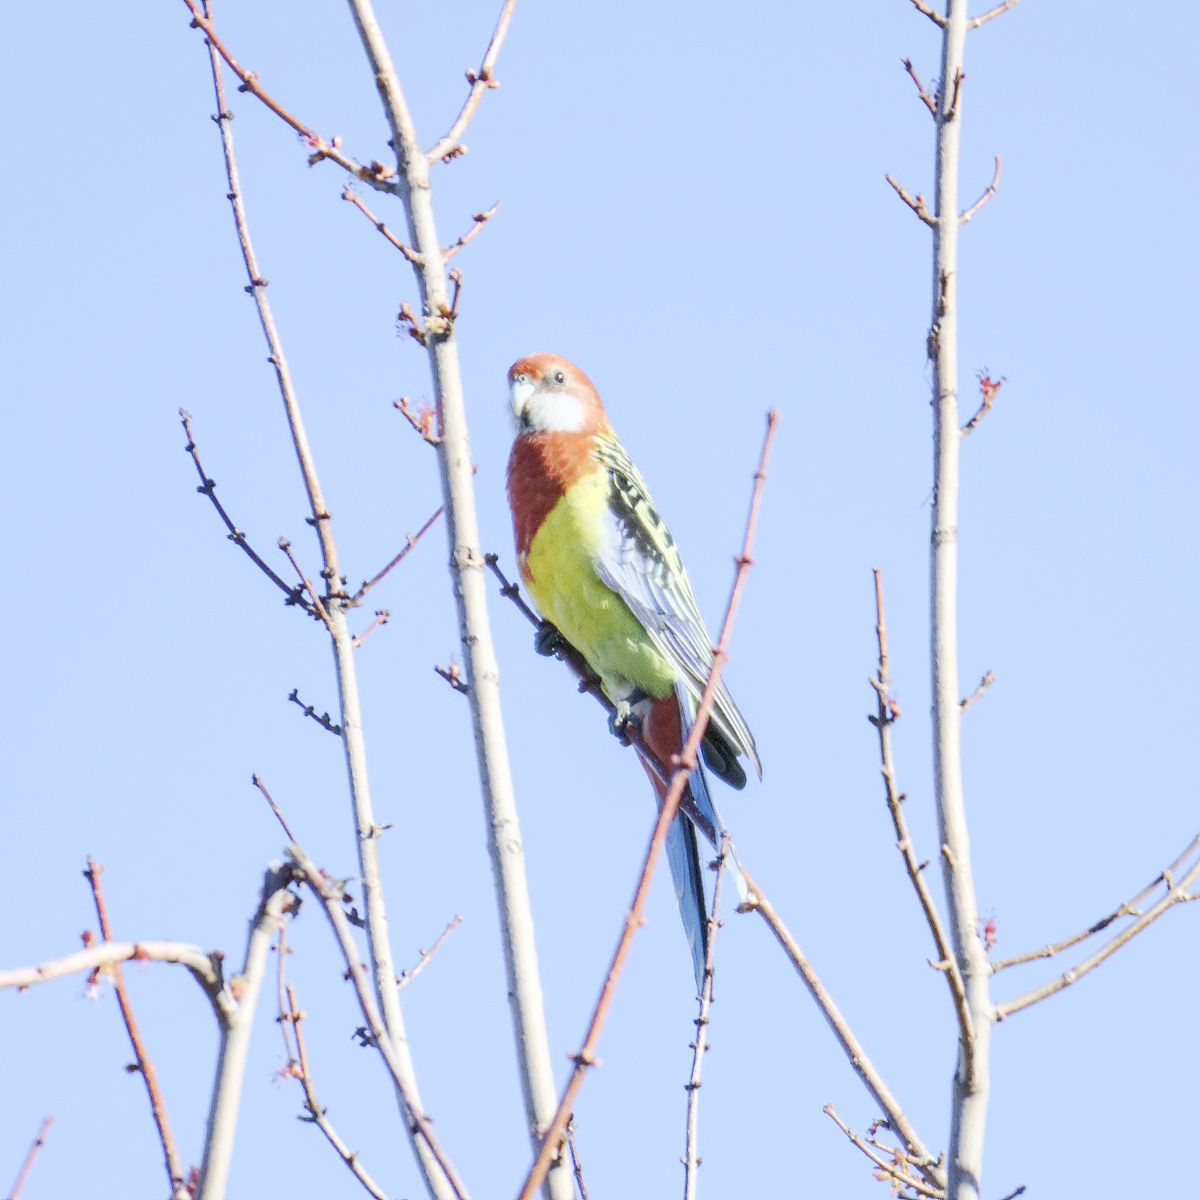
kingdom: Animalia
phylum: Chordata
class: Aves
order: Psittaciformes
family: Psittacidae
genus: Platycercus
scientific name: Platycercus eximius
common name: Eastern rosella
